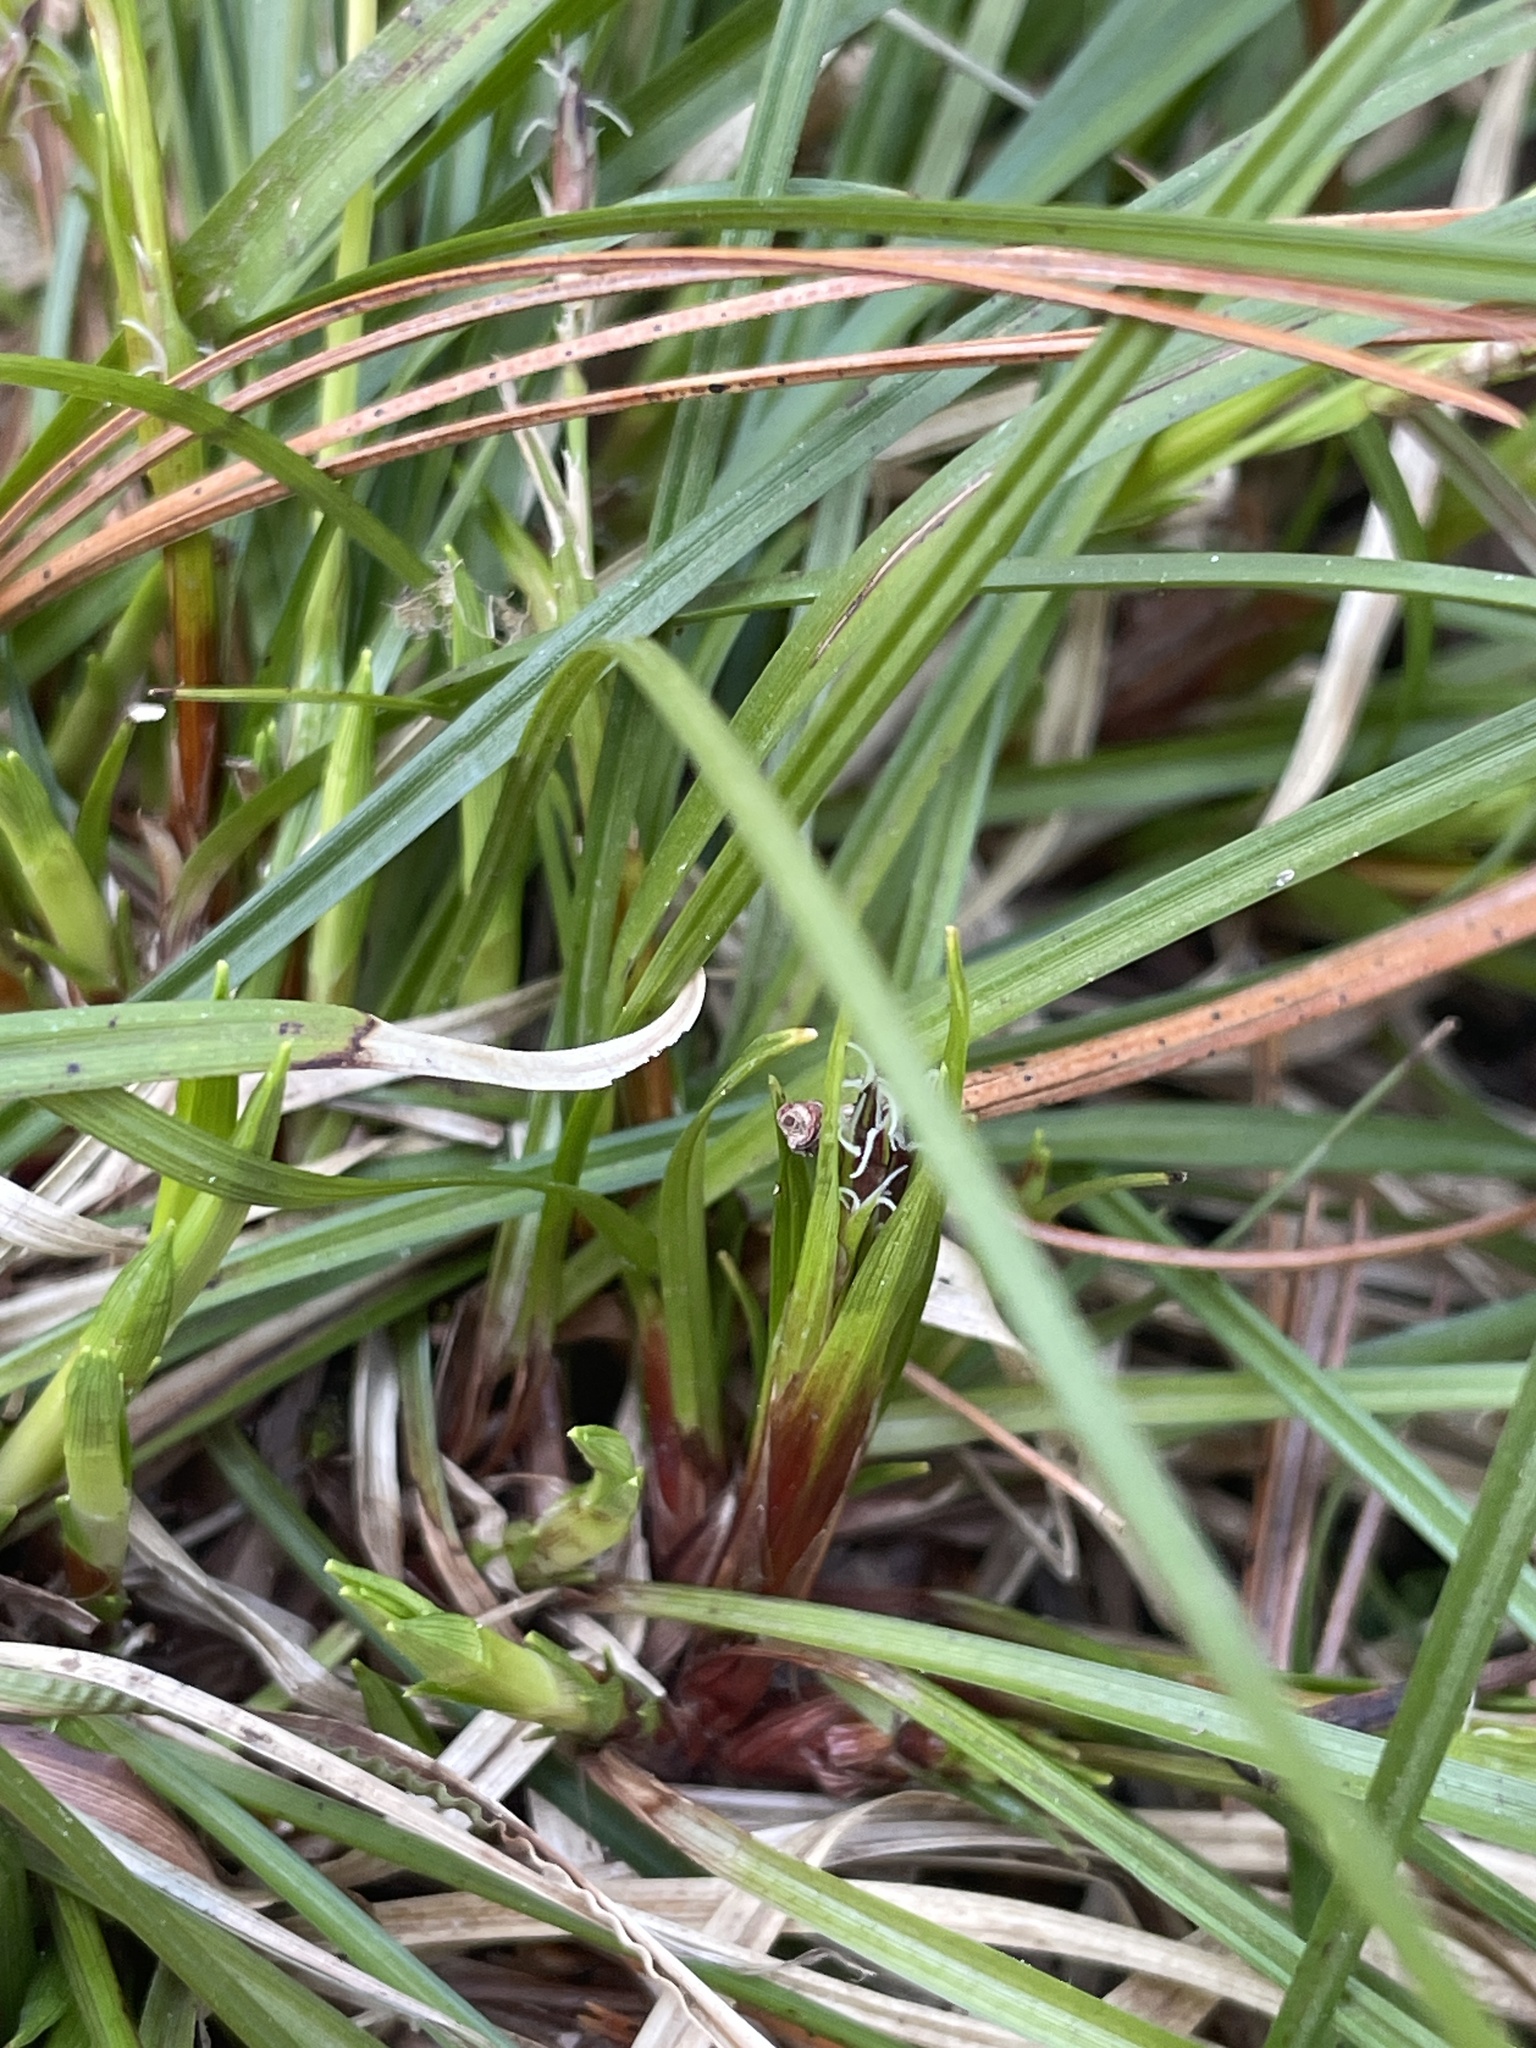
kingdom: Plantae
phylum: Tracheophyta
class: Liliopsida
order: Poales
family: Cyperaceae
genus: Carex
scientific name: Carex pedunculata
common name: Pedunculate sedge
